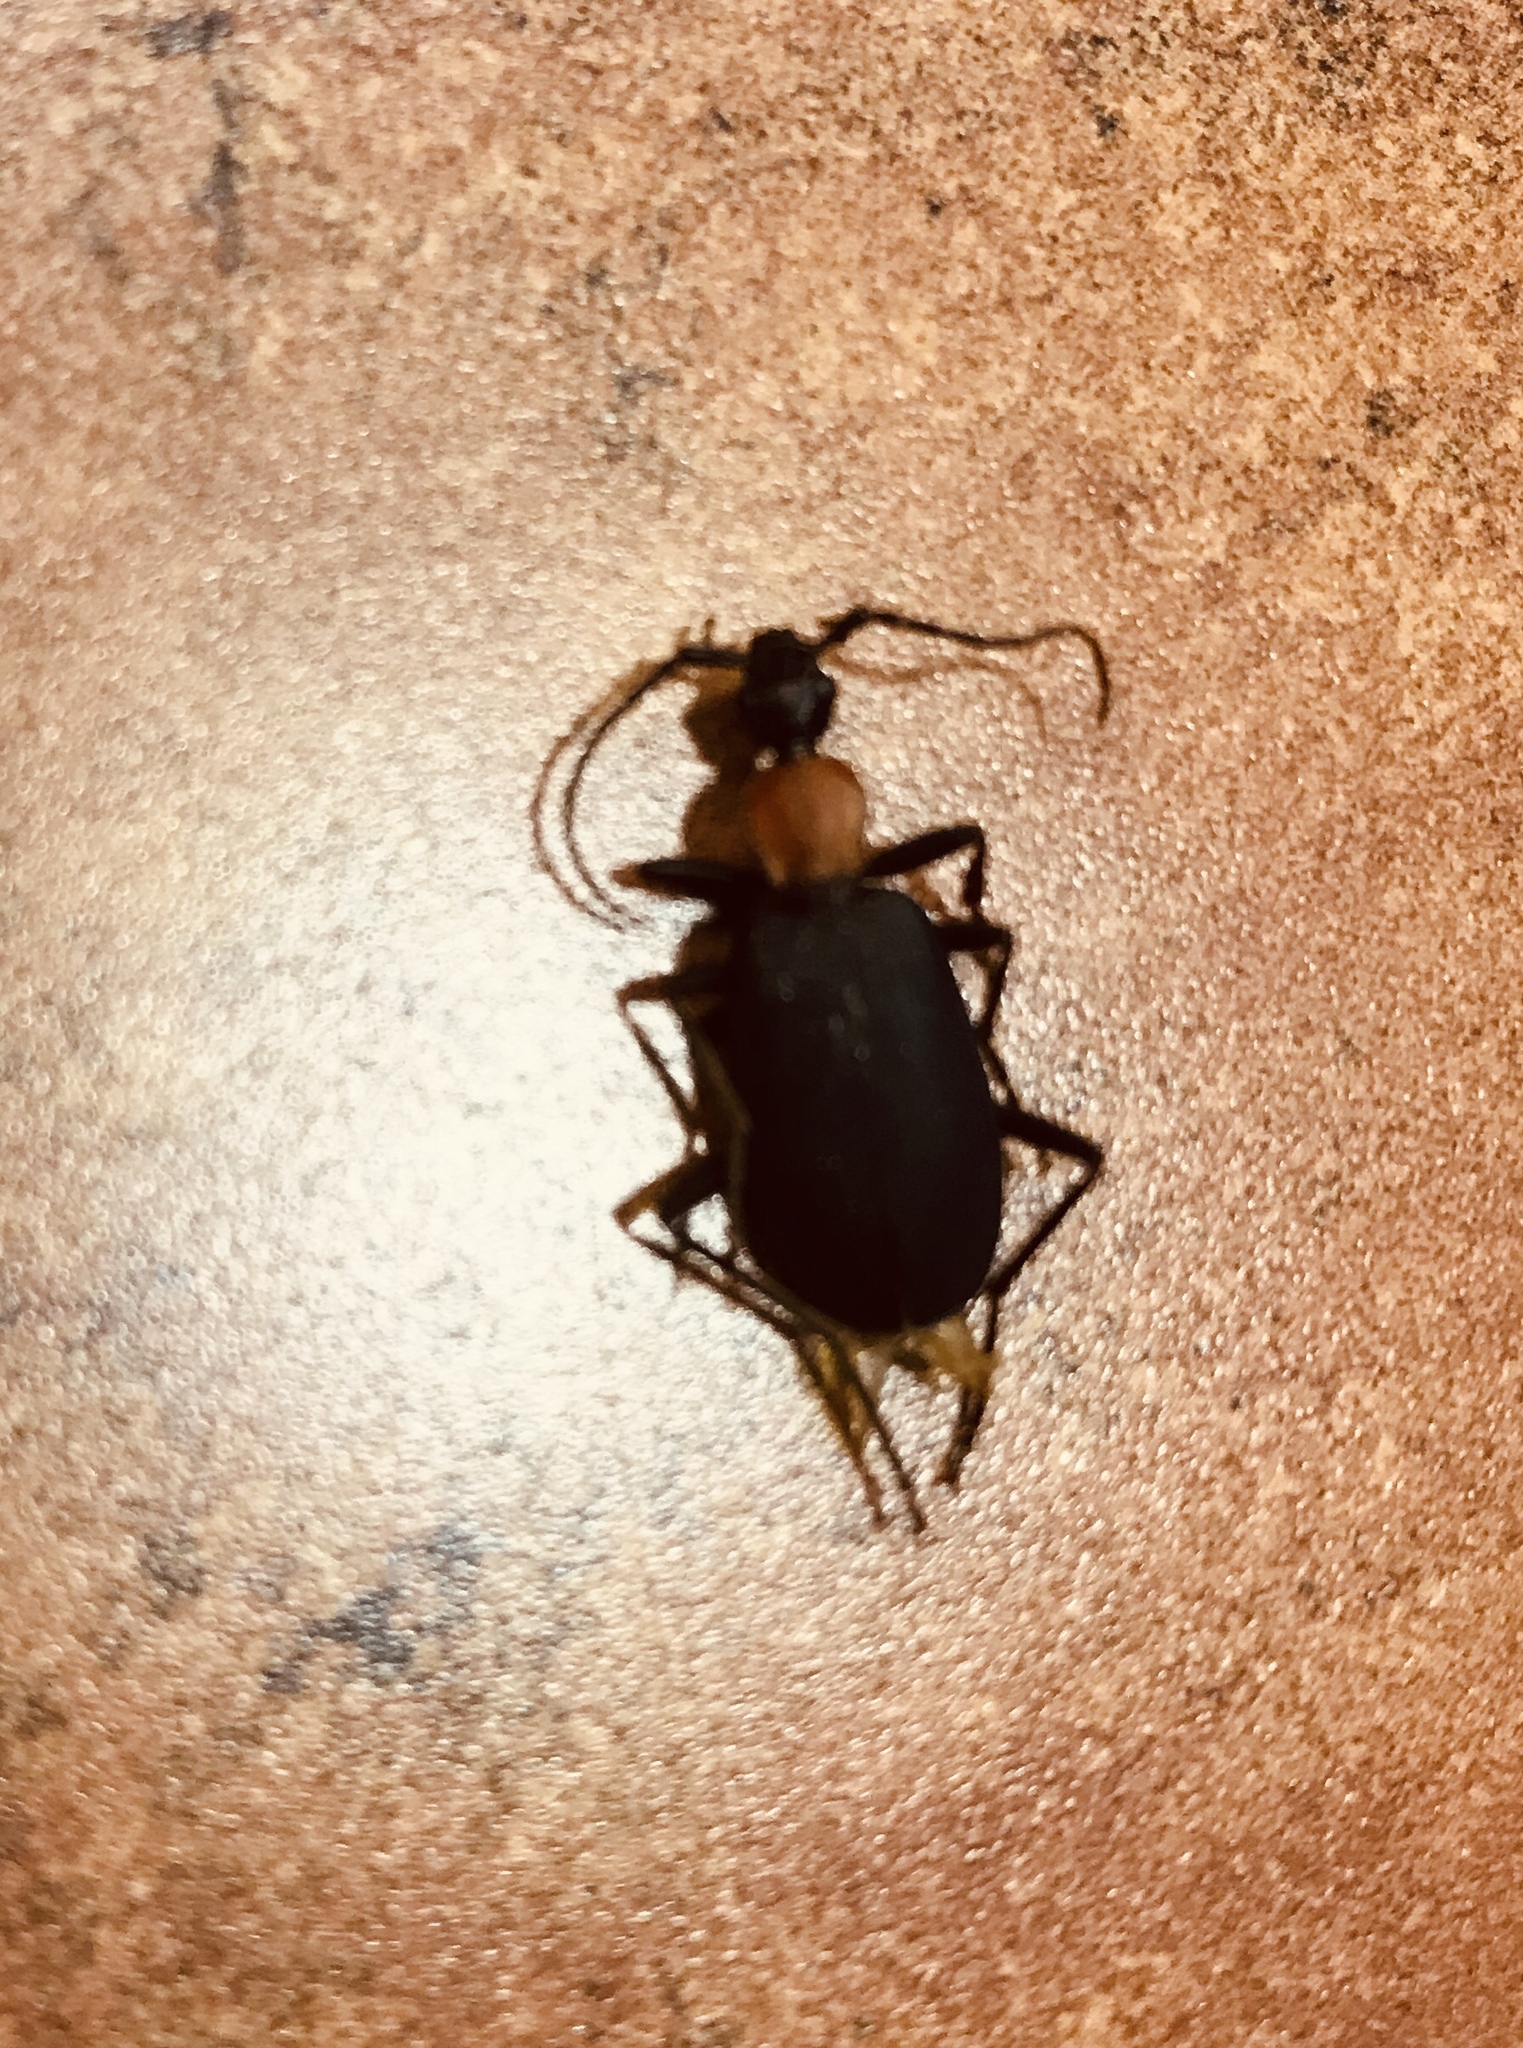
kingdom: Animalia
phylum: Arthropoda
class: Insecta
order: Coleoptera
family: Carabidae
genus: Galerita
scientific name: Galerita mexicana
